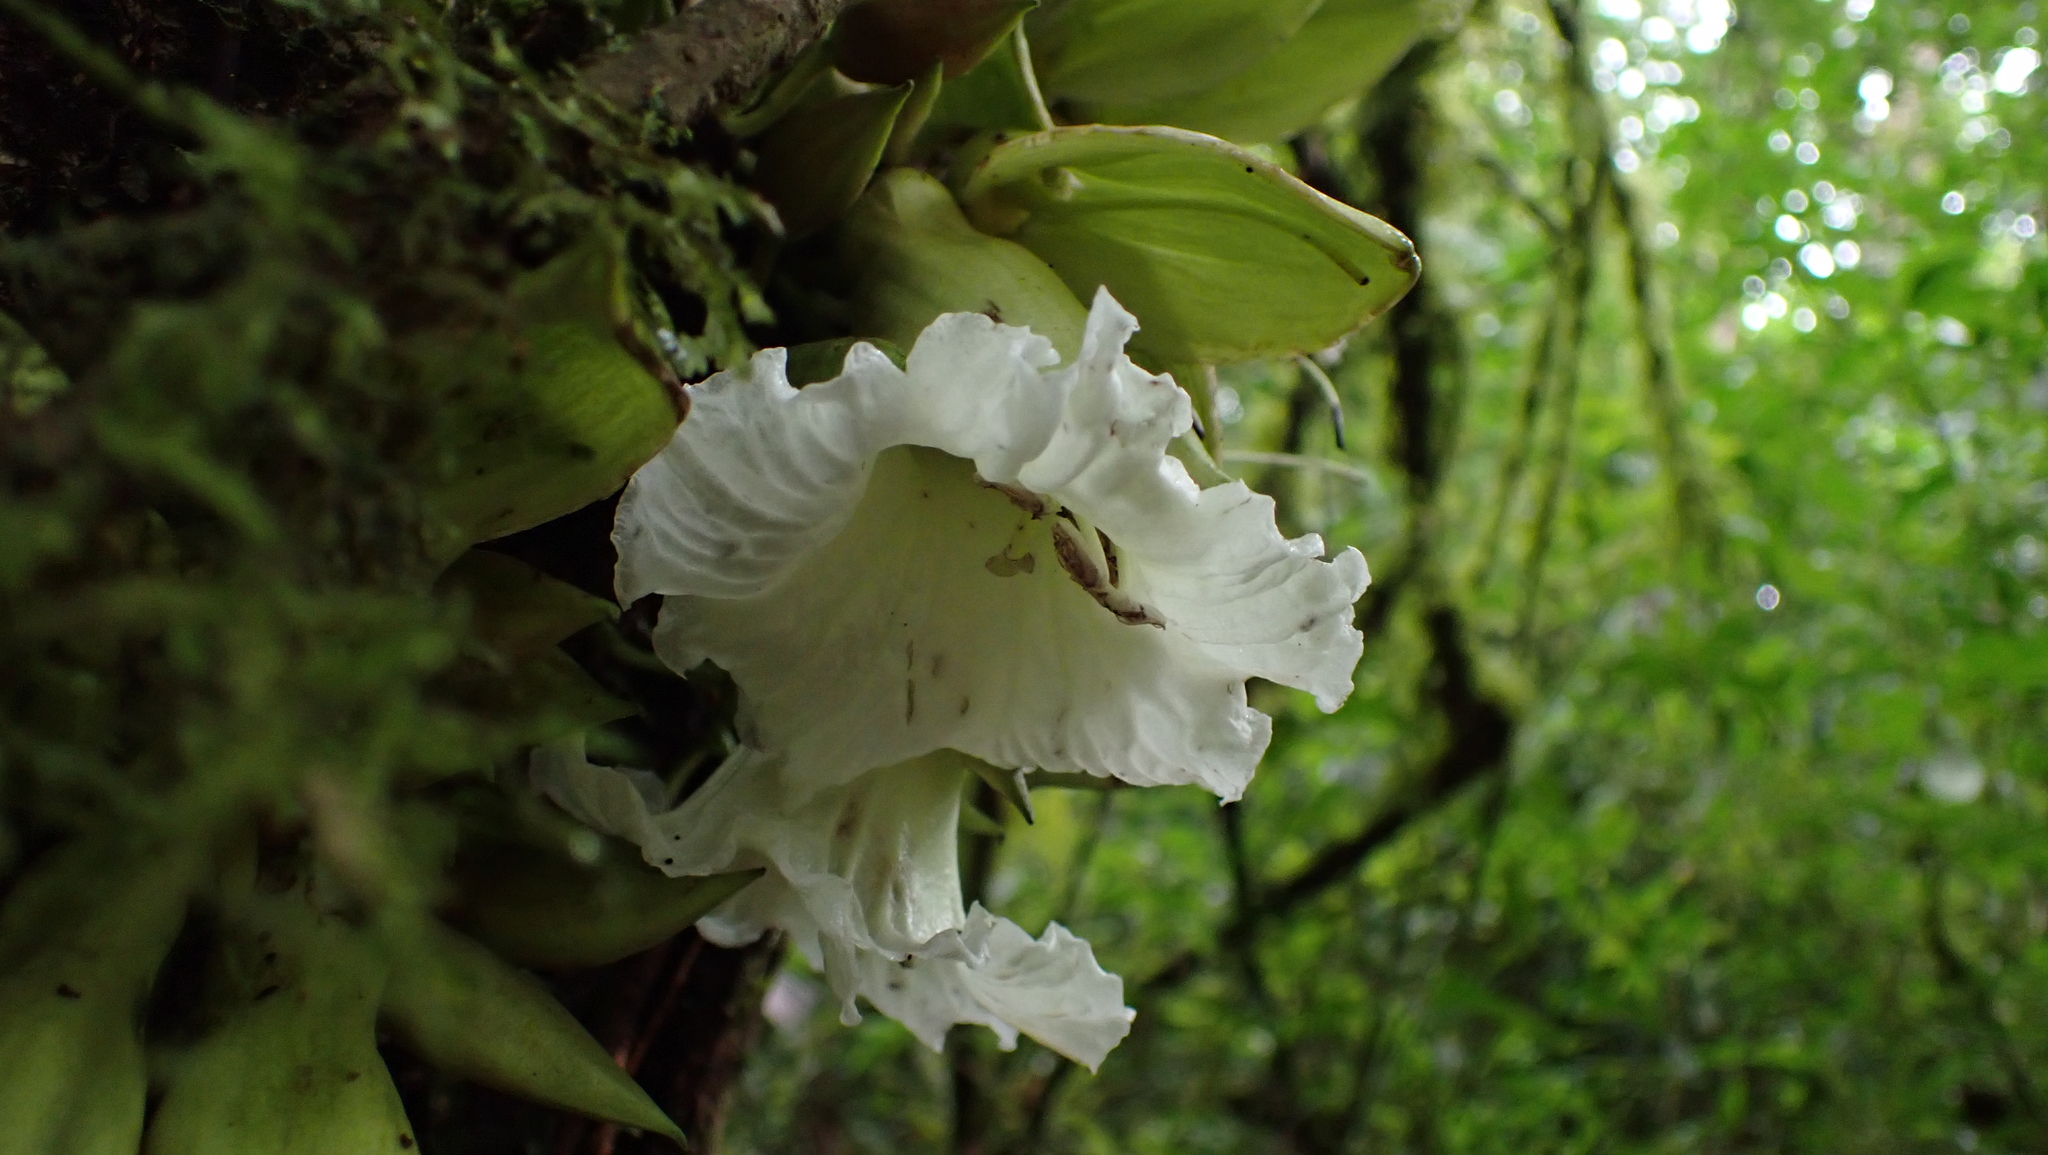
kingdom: Plantae
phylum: Tracheophyta
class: Magnoliopsida
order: Lamiales
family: Bignoniaceae
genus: Parmentiera
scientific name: Parmentiera valerii
